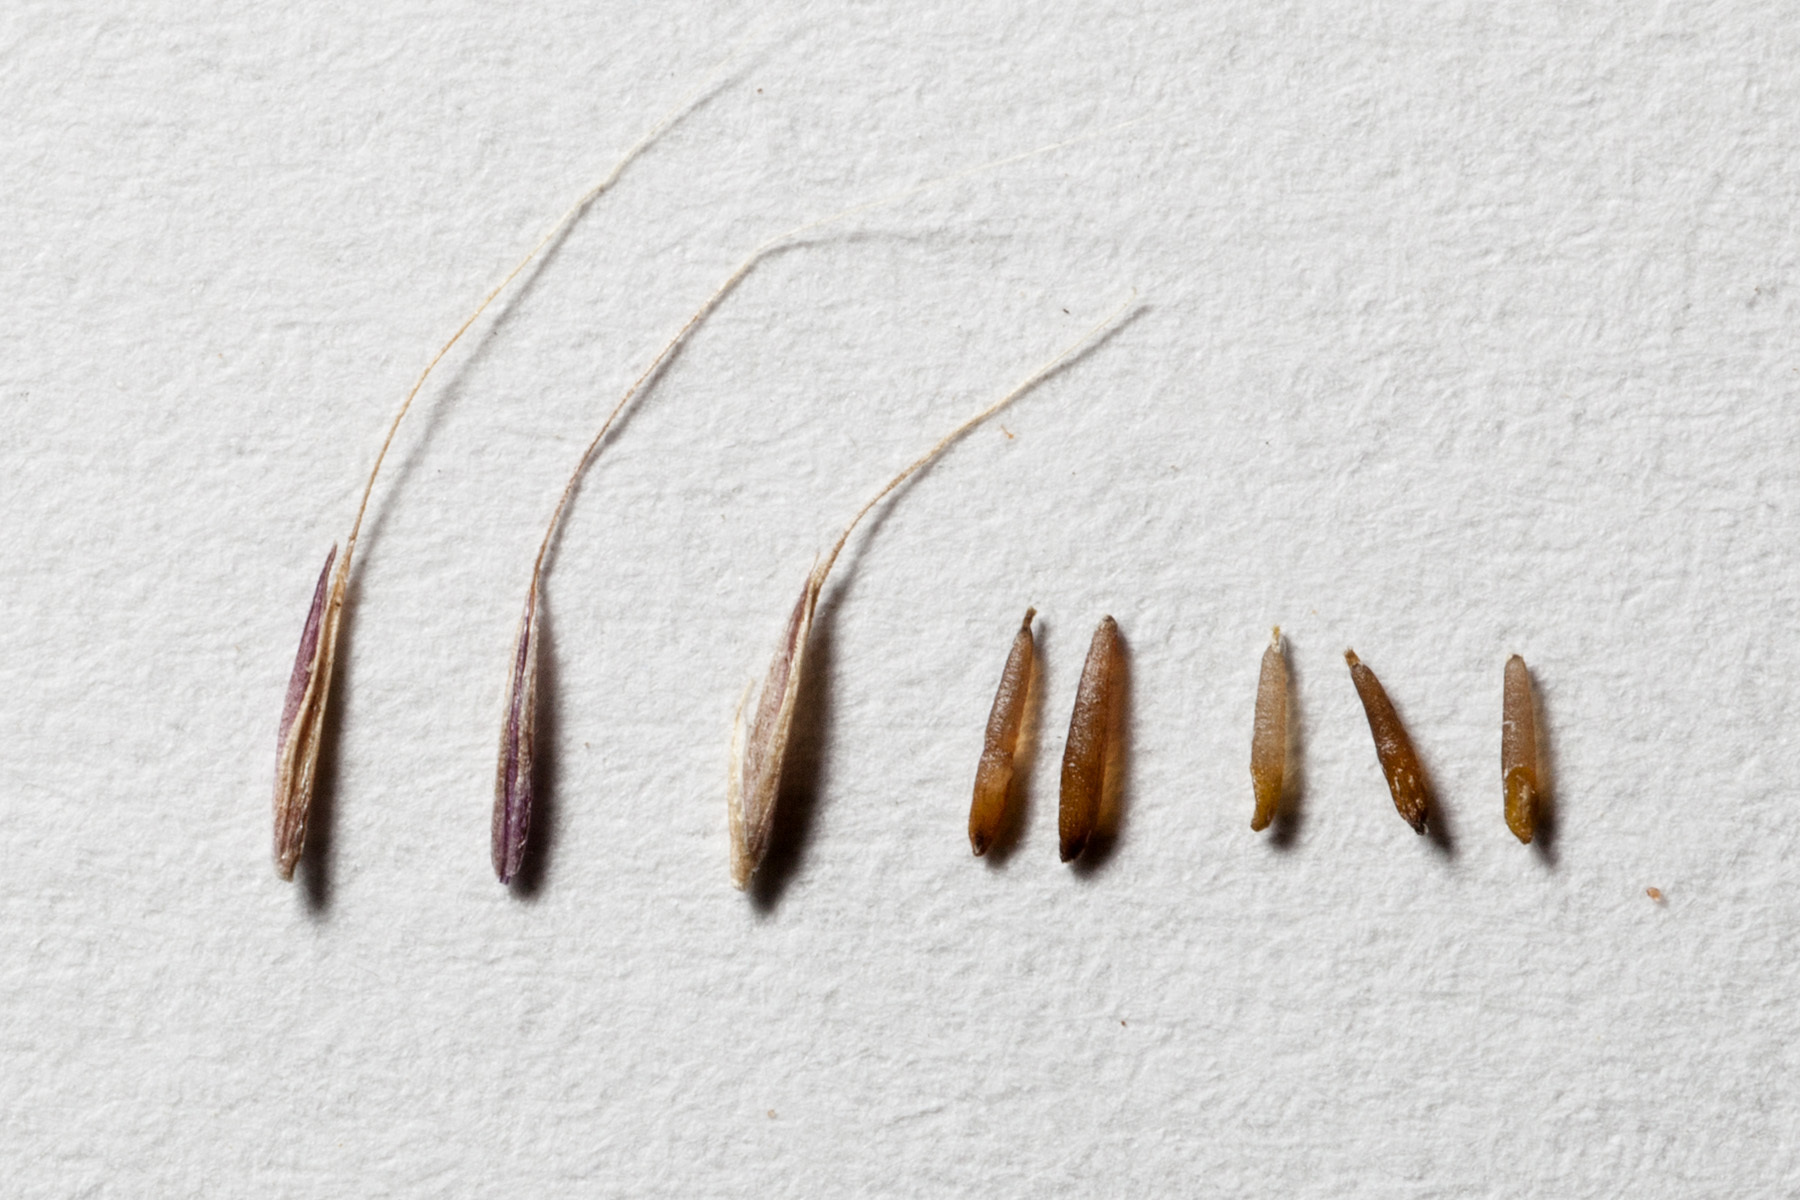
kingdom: Plantae
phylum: Tracheophyta
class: Liliopsida
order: Poales
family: Poaceae
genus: Muhlenbergia
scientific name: Muhlenbergia porteri
